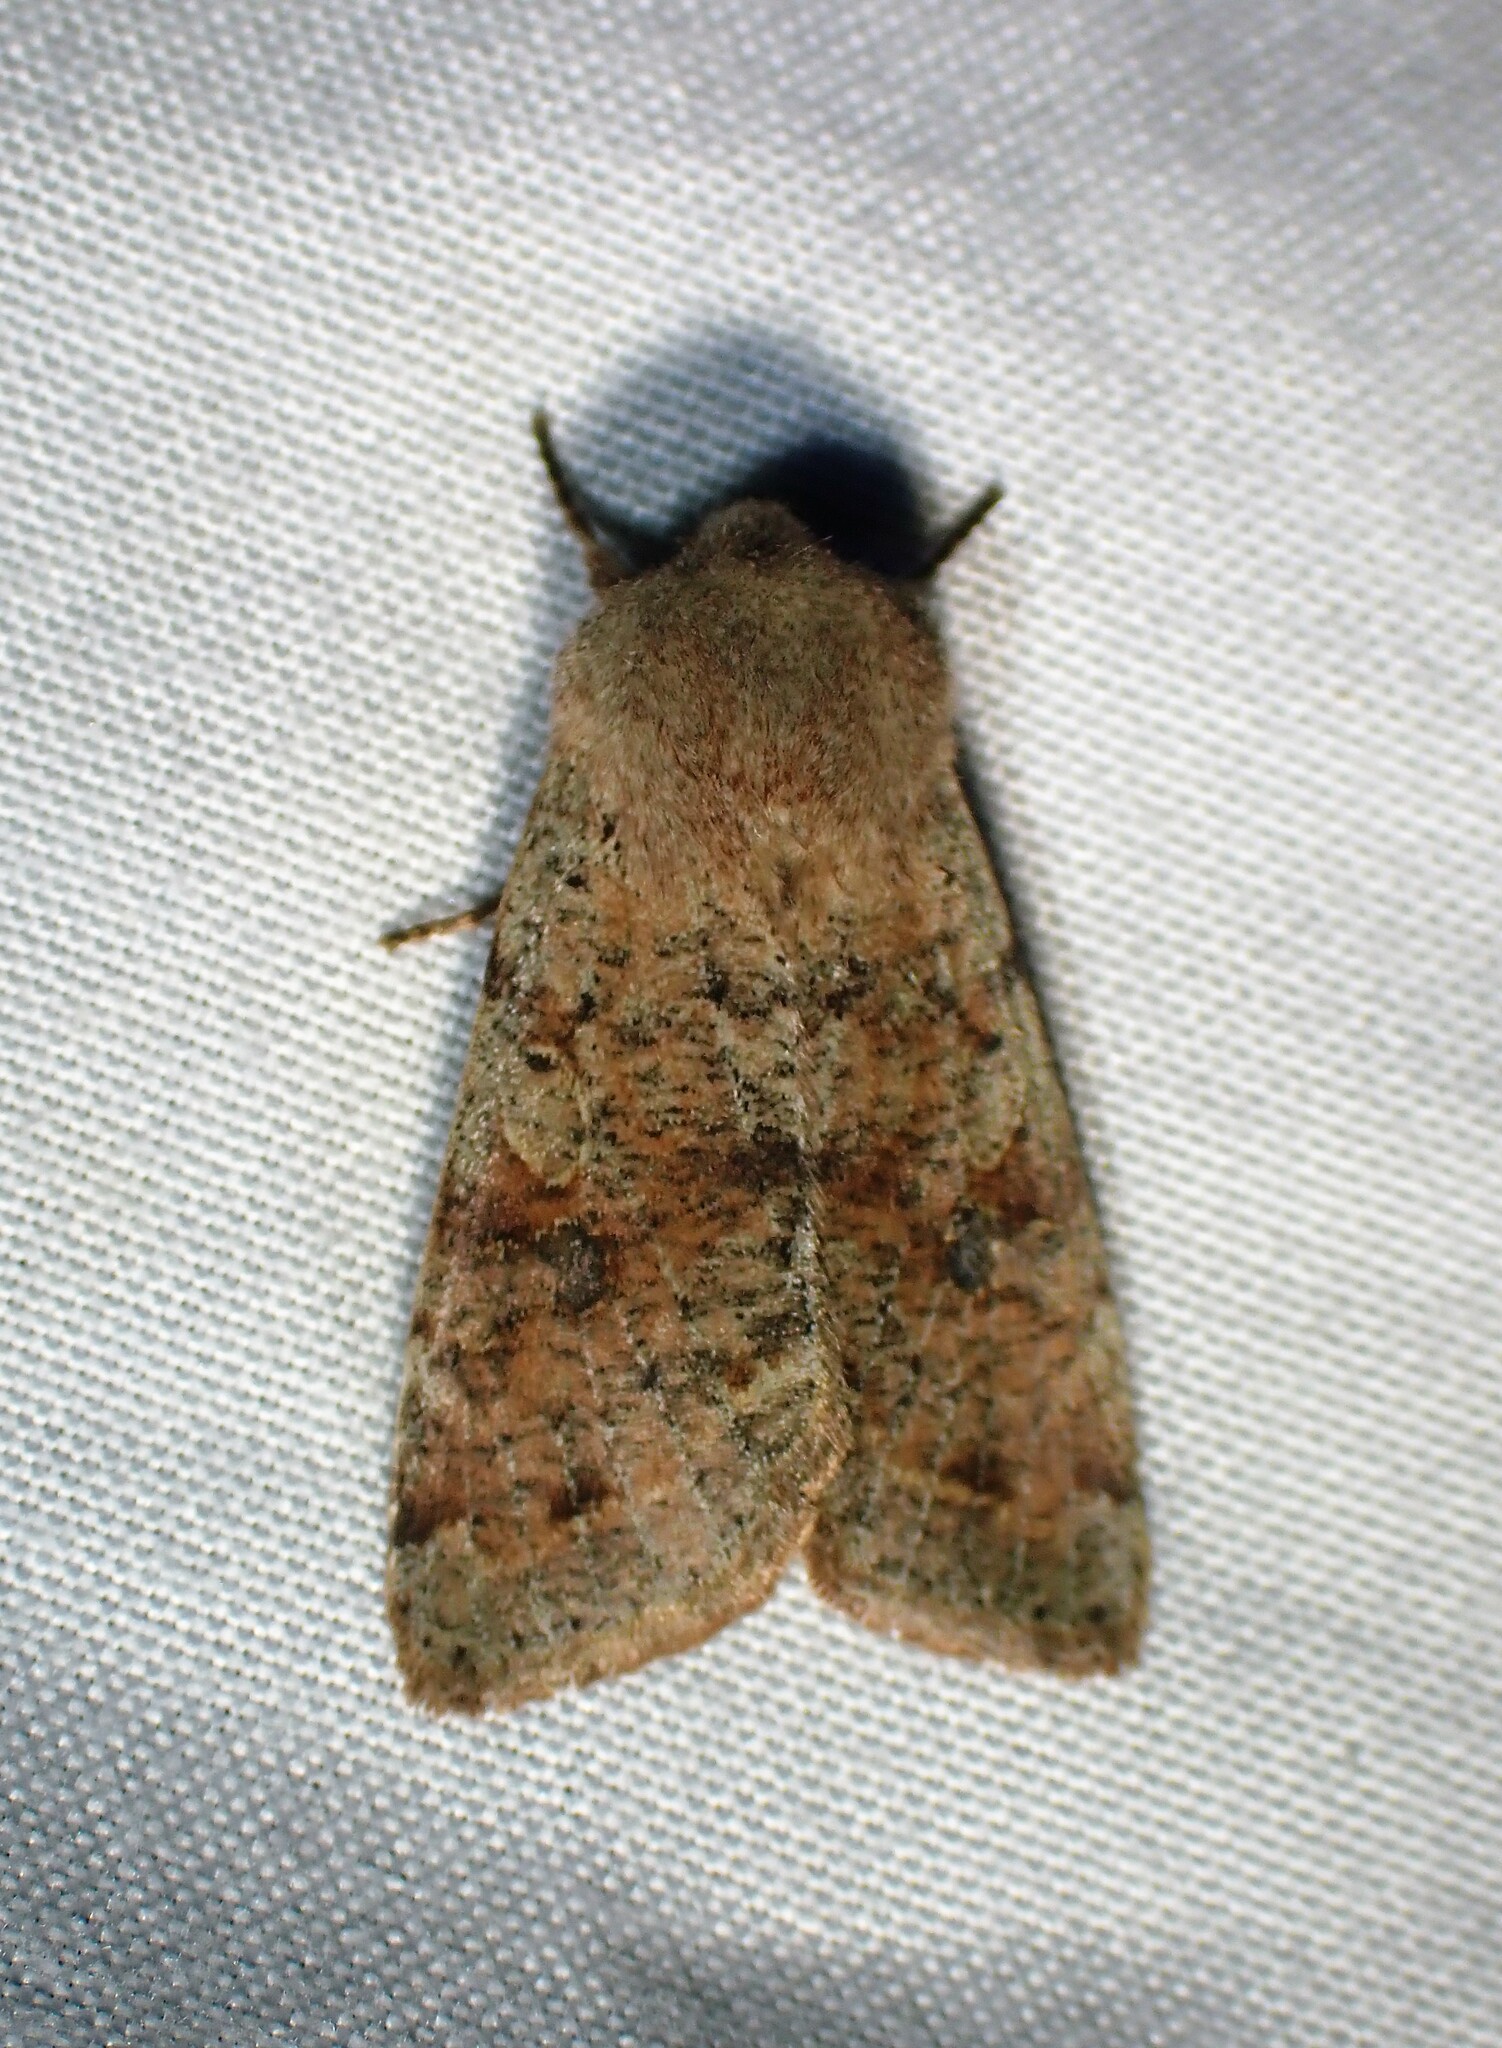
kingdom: Animalia
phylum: Arthropoda
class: Insecta
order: Lepidoptera
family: Noctuidae
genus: Orthosia
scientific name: Orthosia hibisci
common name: Green fruitworm
